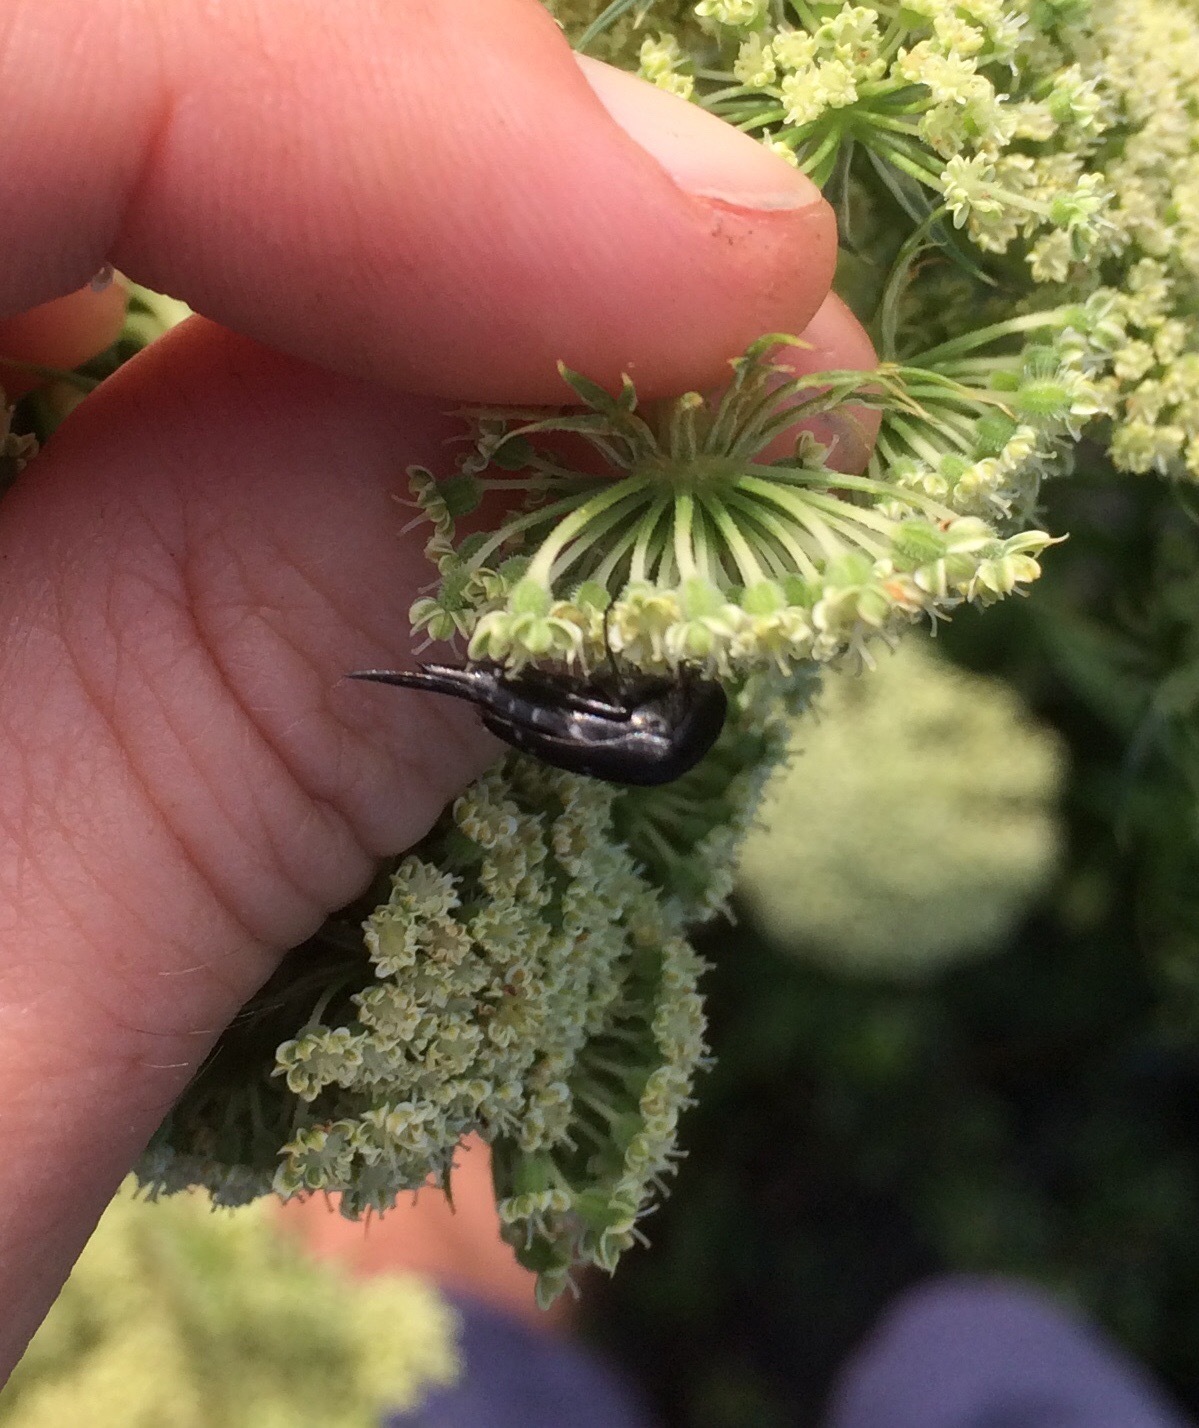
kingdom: Animalia
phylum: Arthropoda
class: Insecta
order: Coleoptera
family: Mordellidae
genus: Hoshihananomia
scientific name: Hoshihananomia
